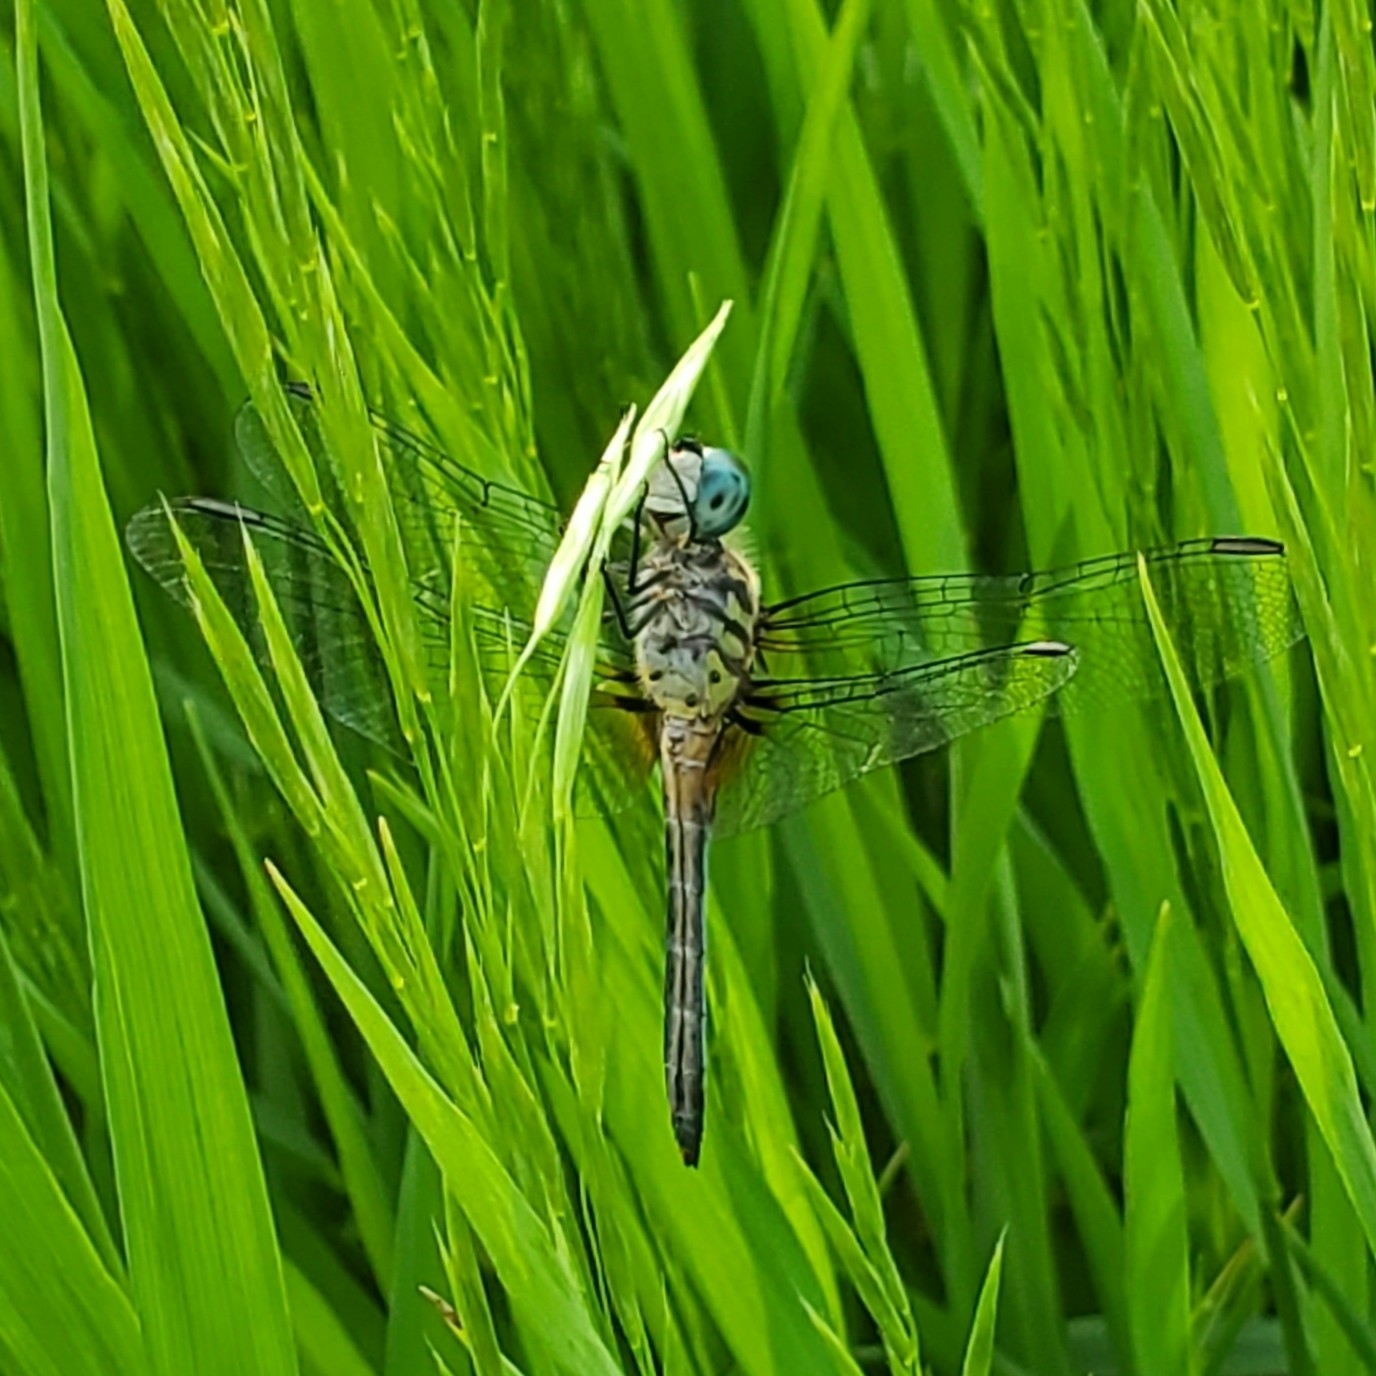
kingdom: Animalia
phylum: Arthropoda
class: Insecta
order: Odonata
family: Libellulidae
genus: Pachydiplax
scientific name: Pachydiplax longipennis
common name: Blue dasher
